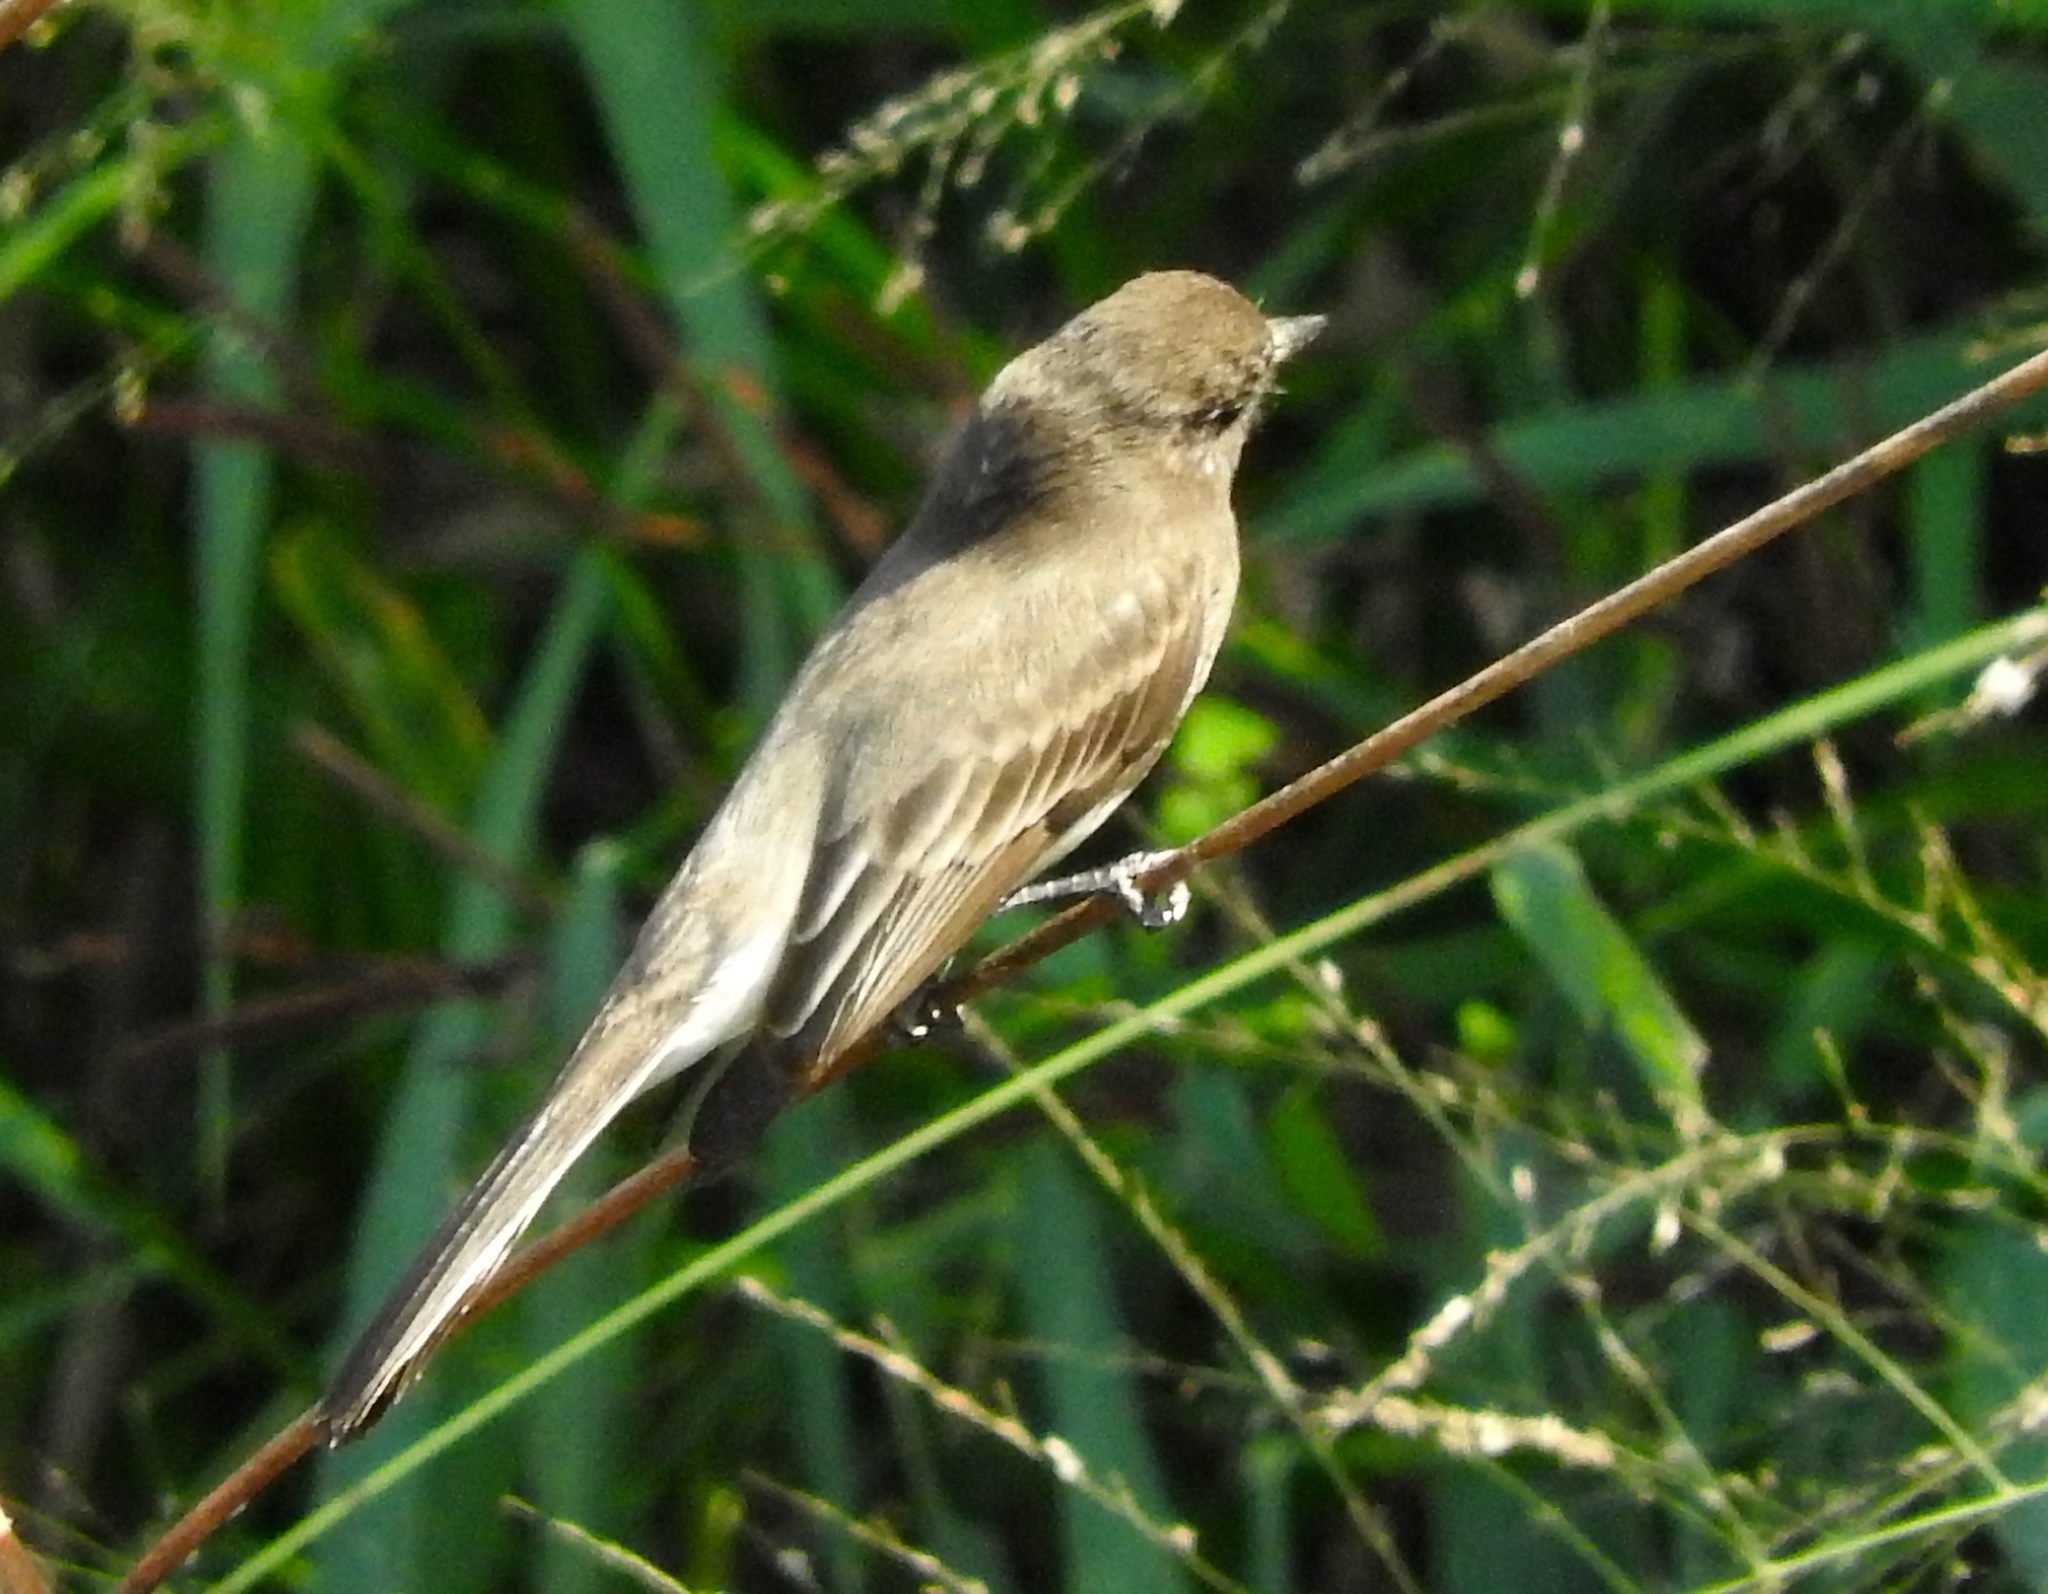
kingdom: Animalia
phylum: Chordata
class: Aves
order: Passeriformes
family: Tyrannidae
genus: Sayornis
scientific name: Sayornis nigricans
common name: Black phoebe
